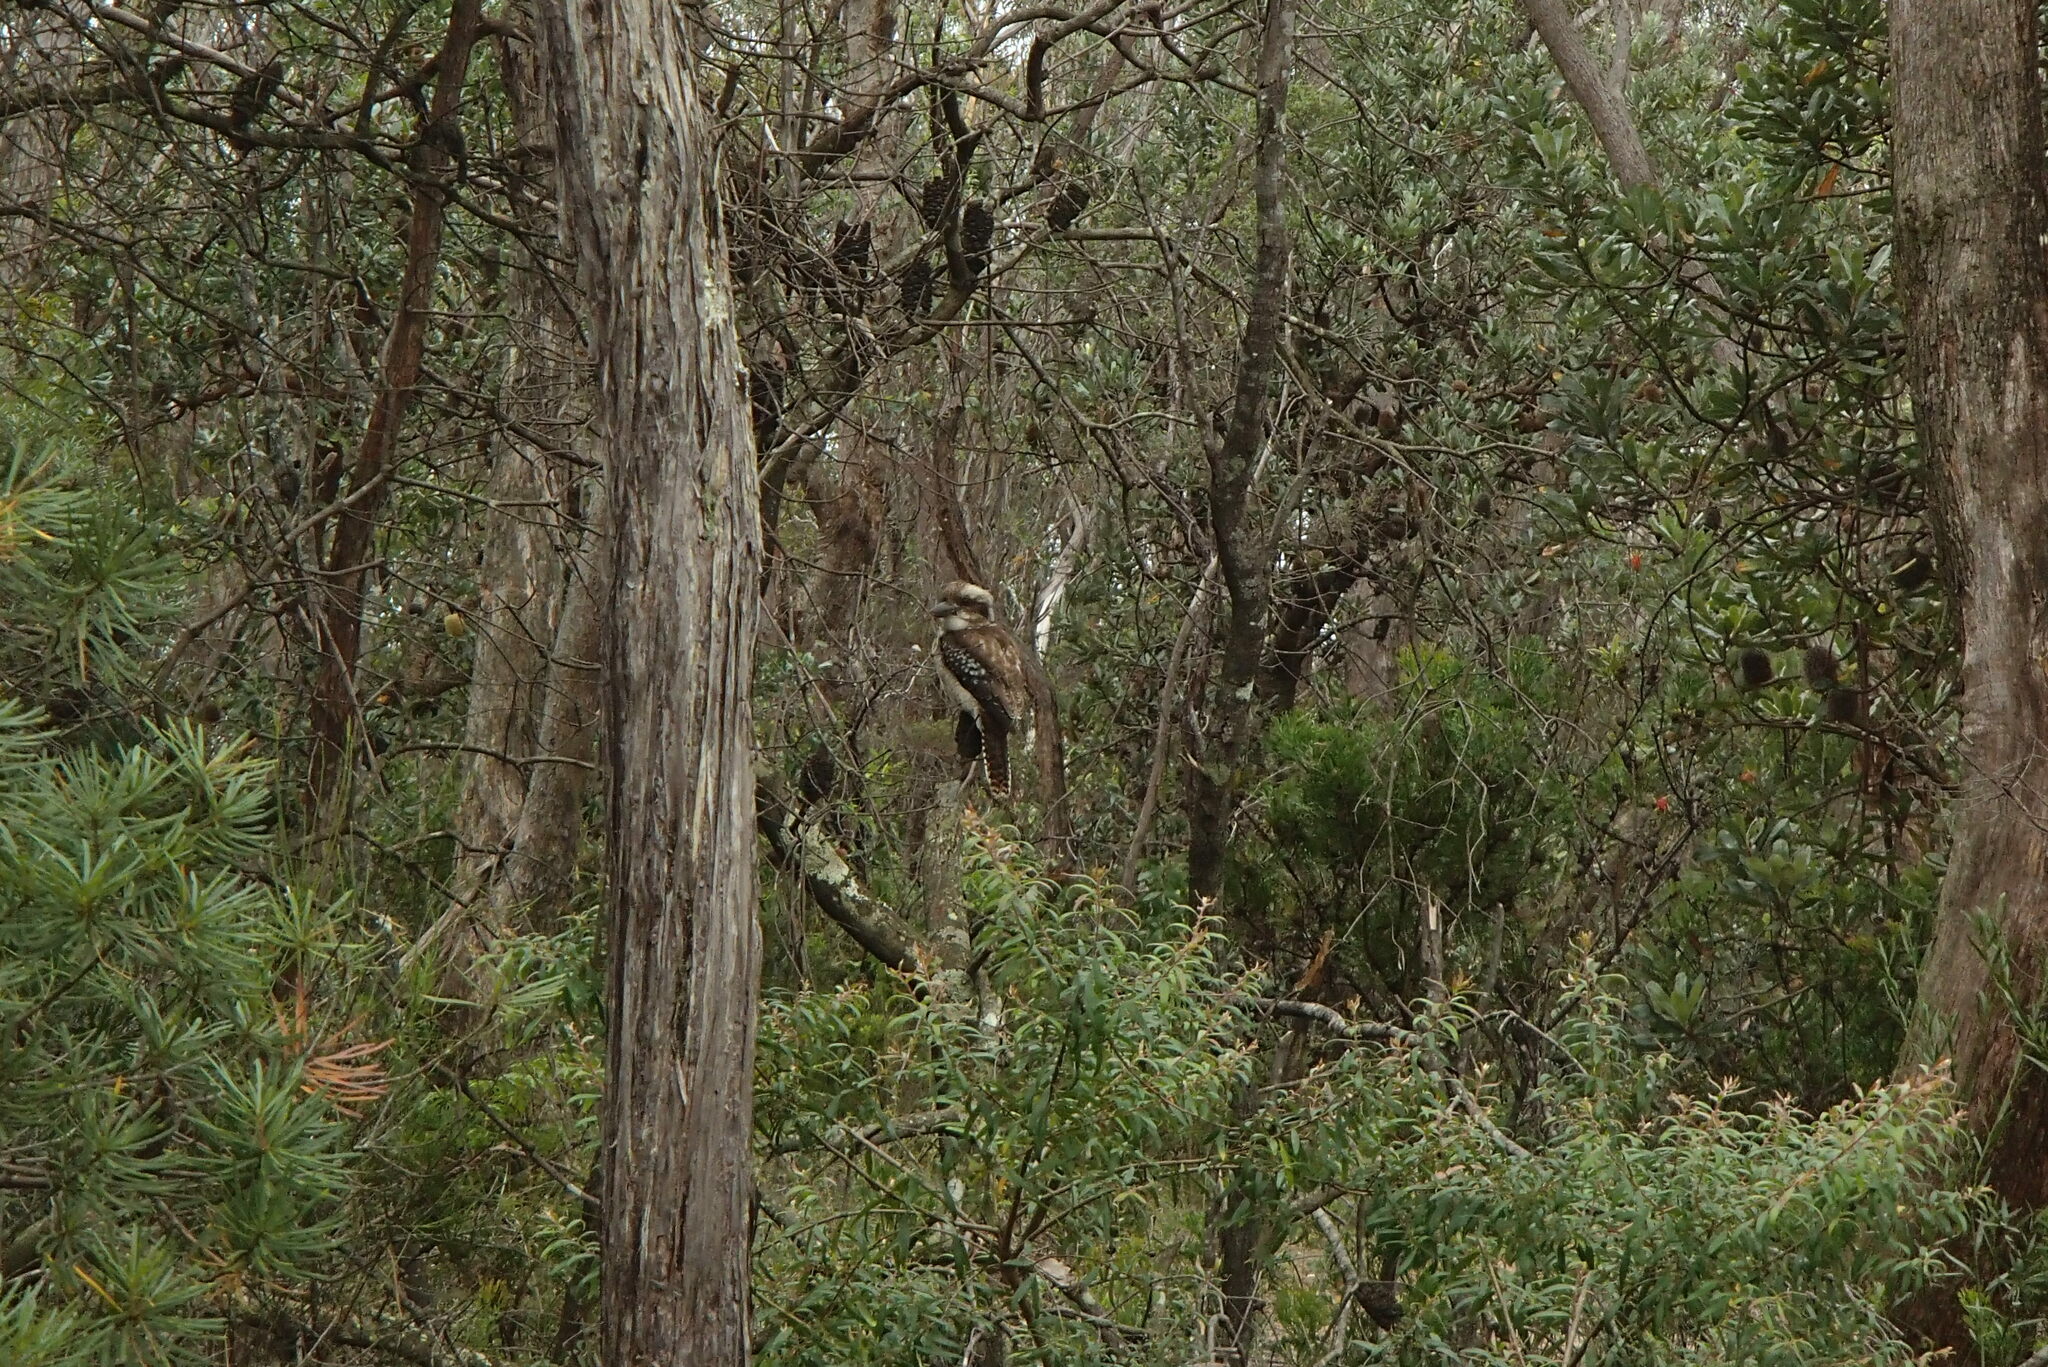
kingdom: Animalia
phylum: Chordata
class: Aves
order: Coraciiformes
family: Alcedinidae
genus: Dacelo
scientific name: Dacelo novaeguineae
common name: Laughing kookaburra
